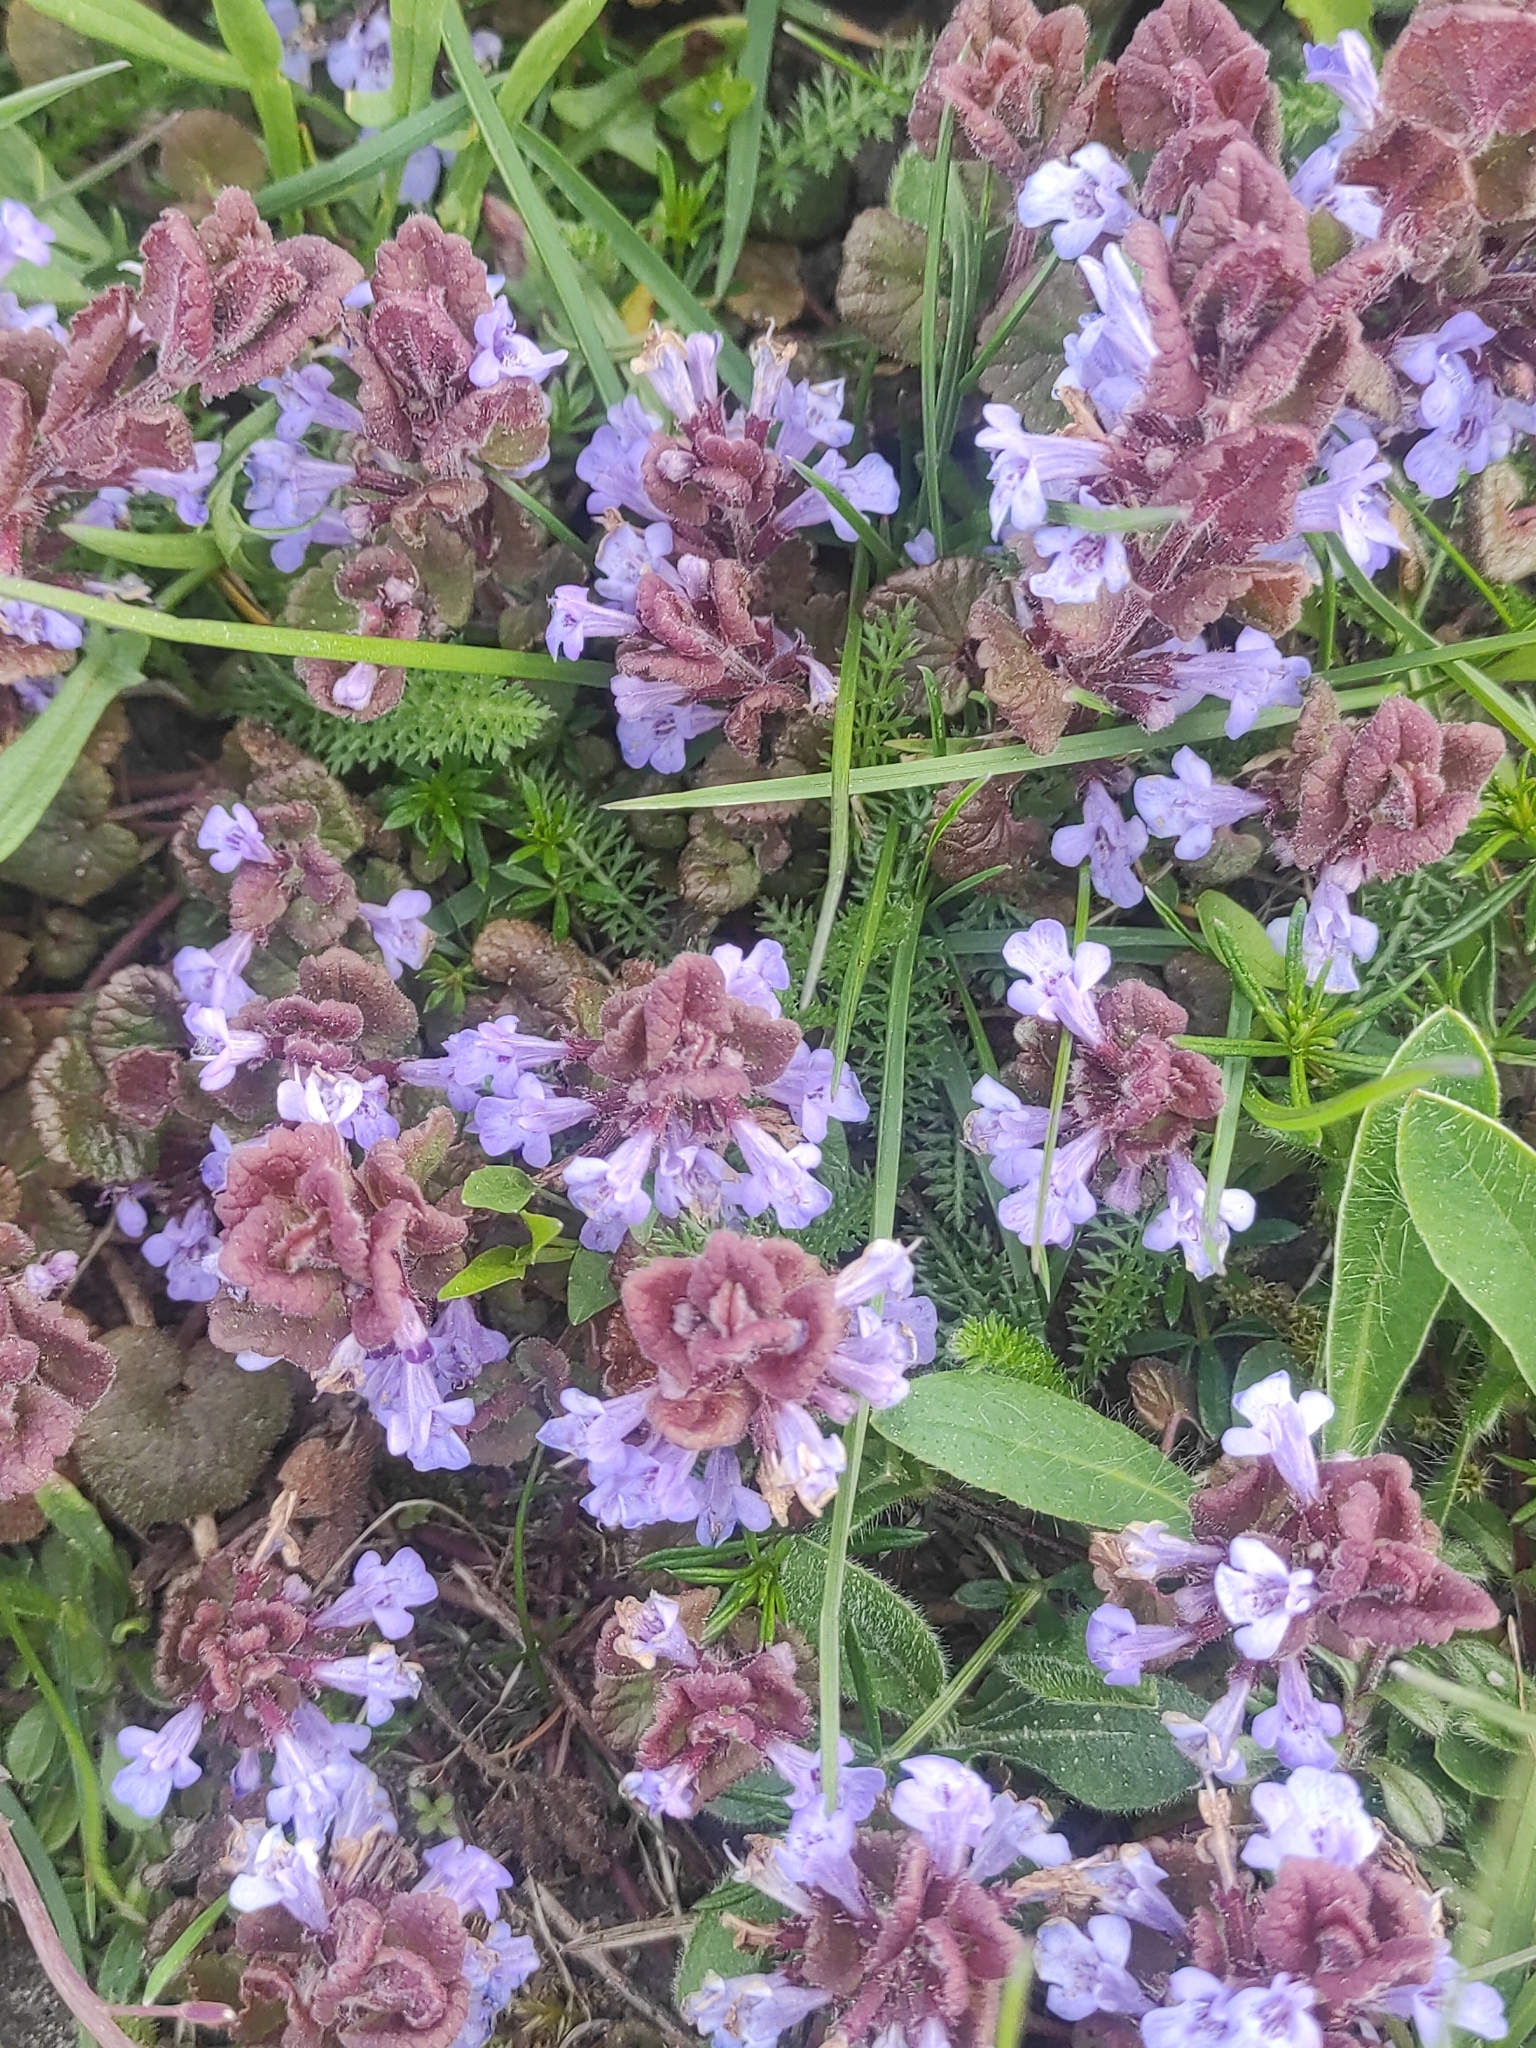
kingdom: Plantae
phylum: Tracheophyta
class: Magnoliopsida
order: Lamiales
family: Lamiaceae
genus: Glechoma
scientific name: Glechoma hederacea
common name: Ground ivy
